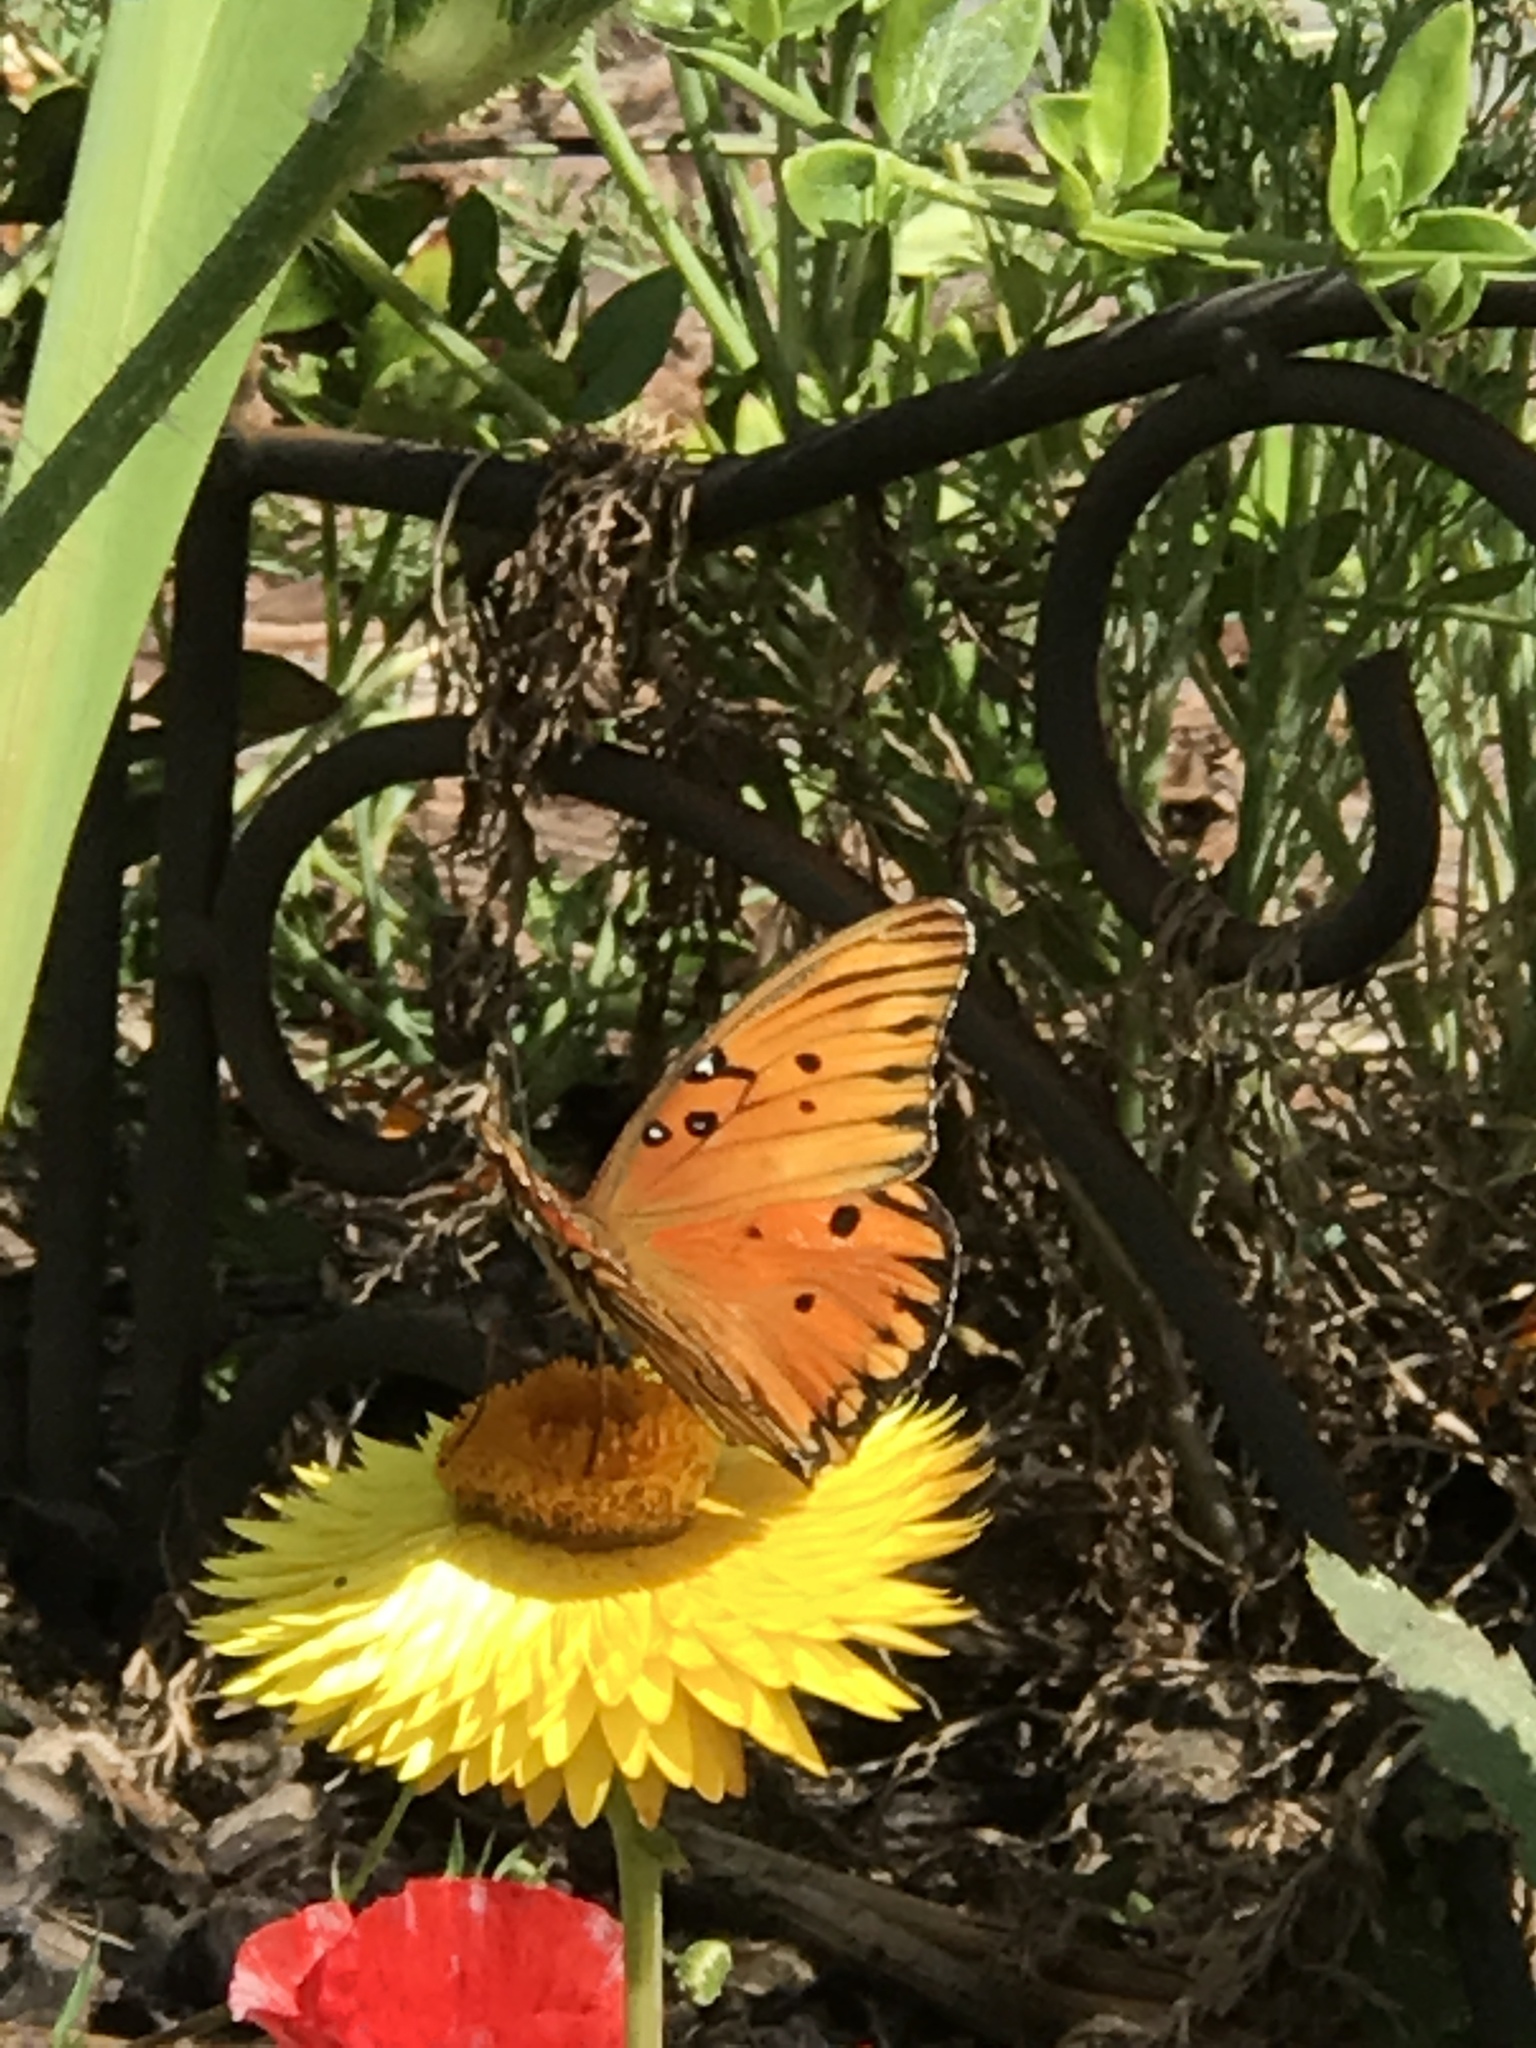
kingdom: Animalia
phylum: Arthropoda
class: Insecta
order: Lepidoptera
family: Nymphalidae
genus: Dione
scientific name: Dione vanillae
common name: Gulf fritillary
